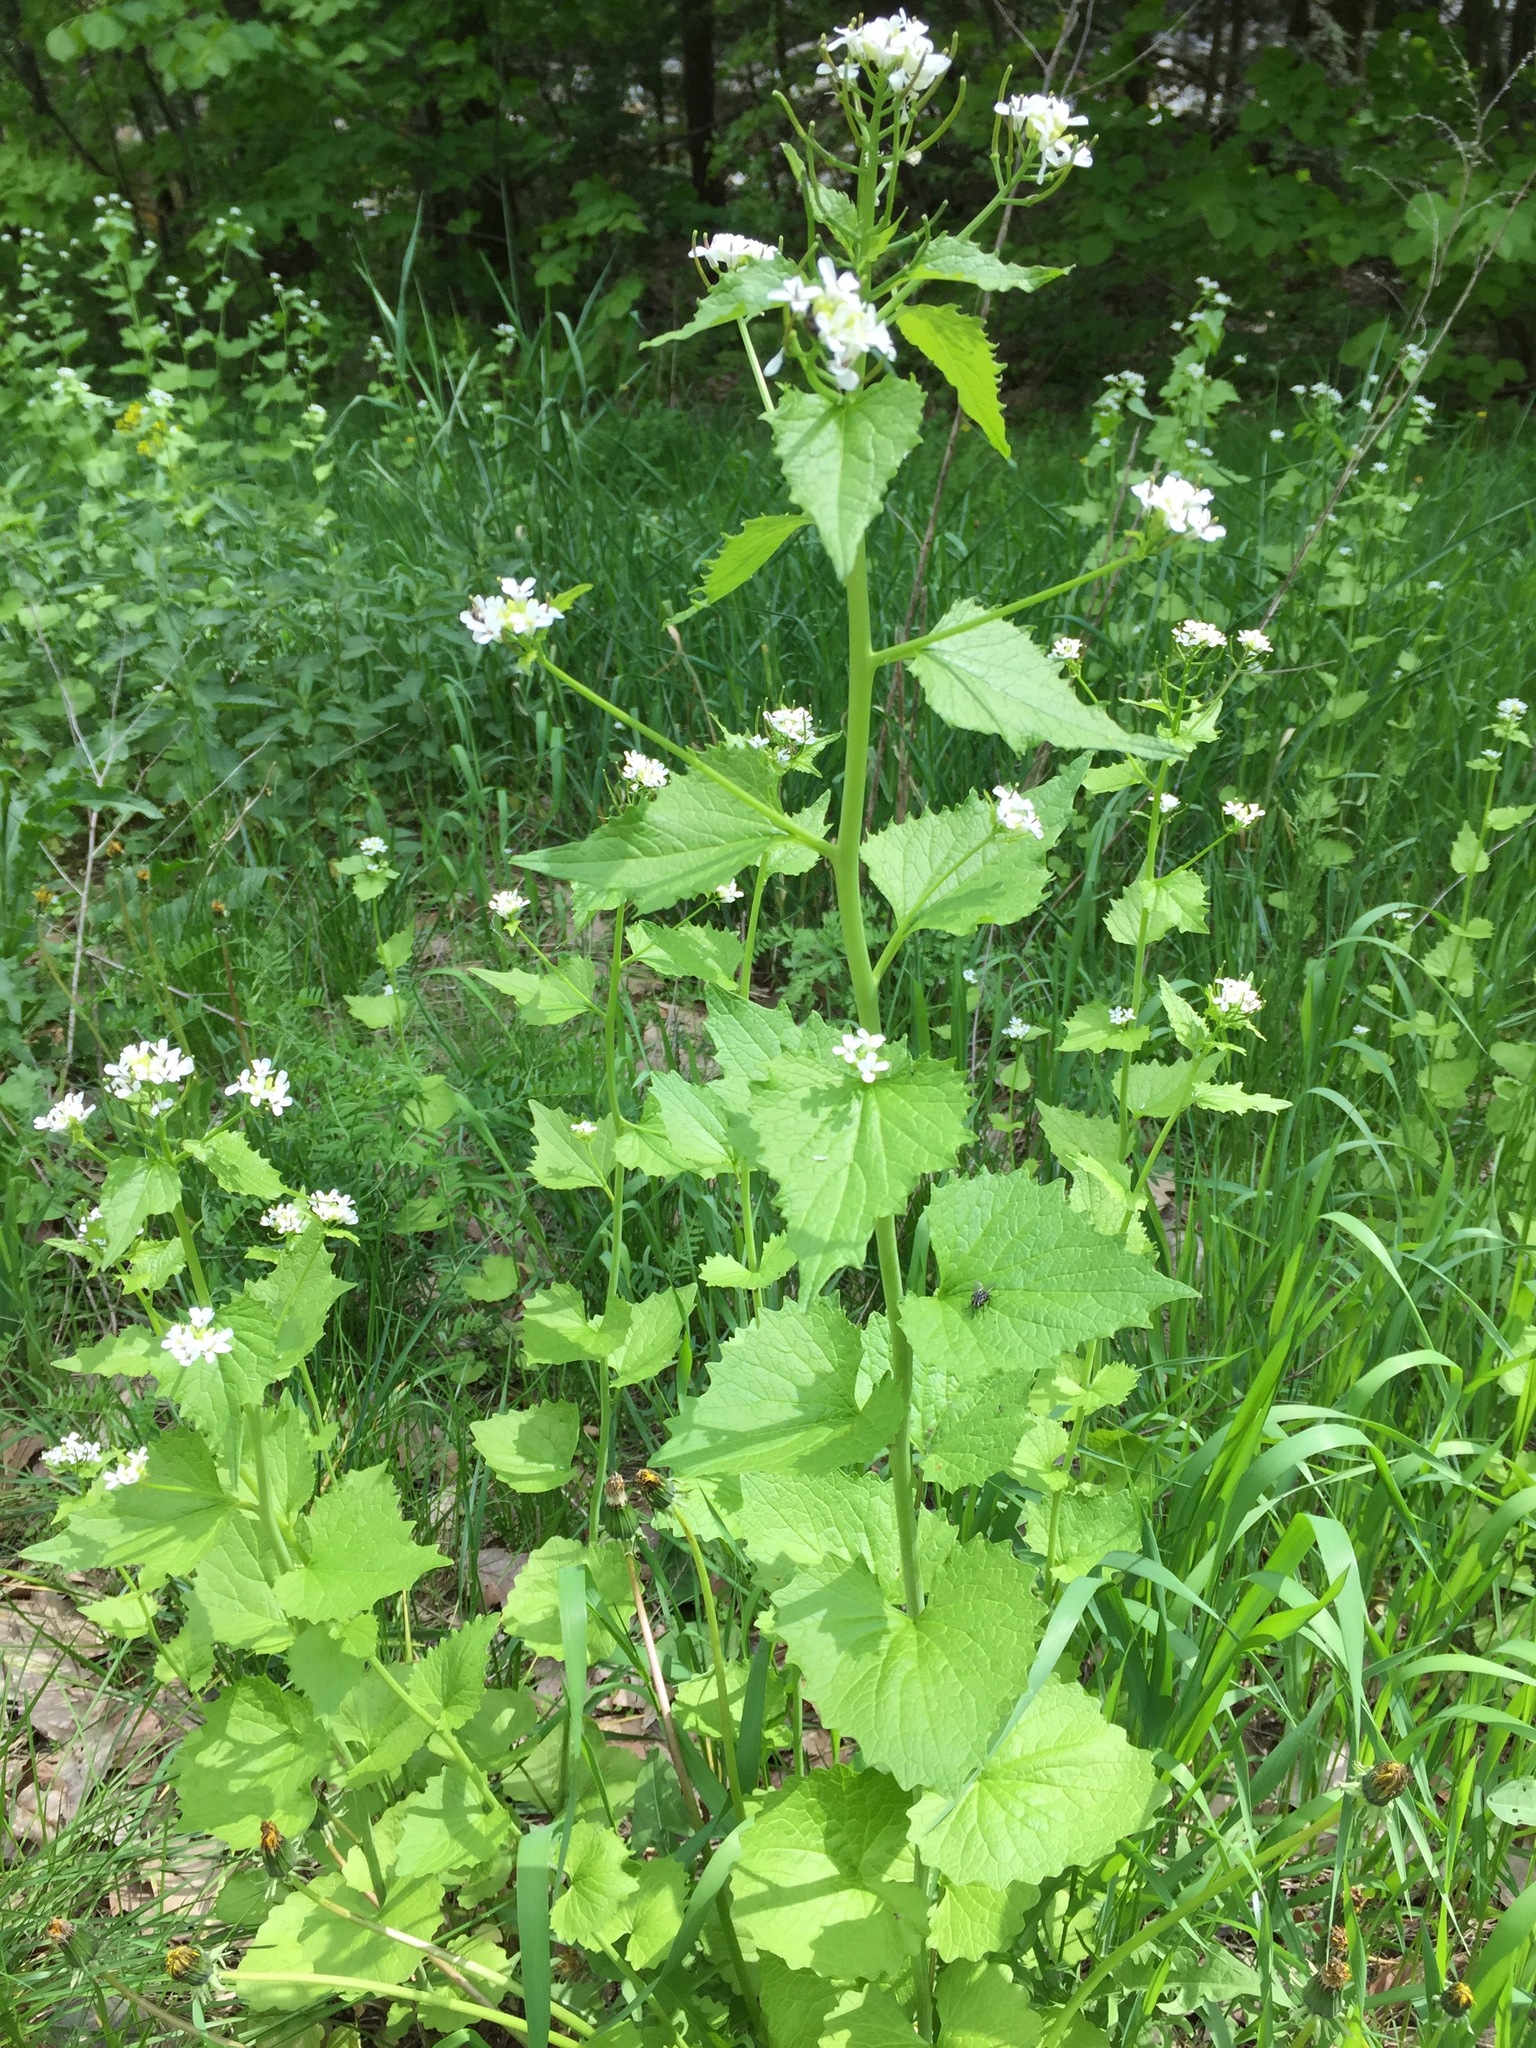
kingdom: Plantae
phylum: Tracheophyta
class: Magnoliopsida
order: Brassicales
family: Brassicaceae
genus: Alliaria
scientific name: Alliaria petiolata
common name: Garlic mustard
